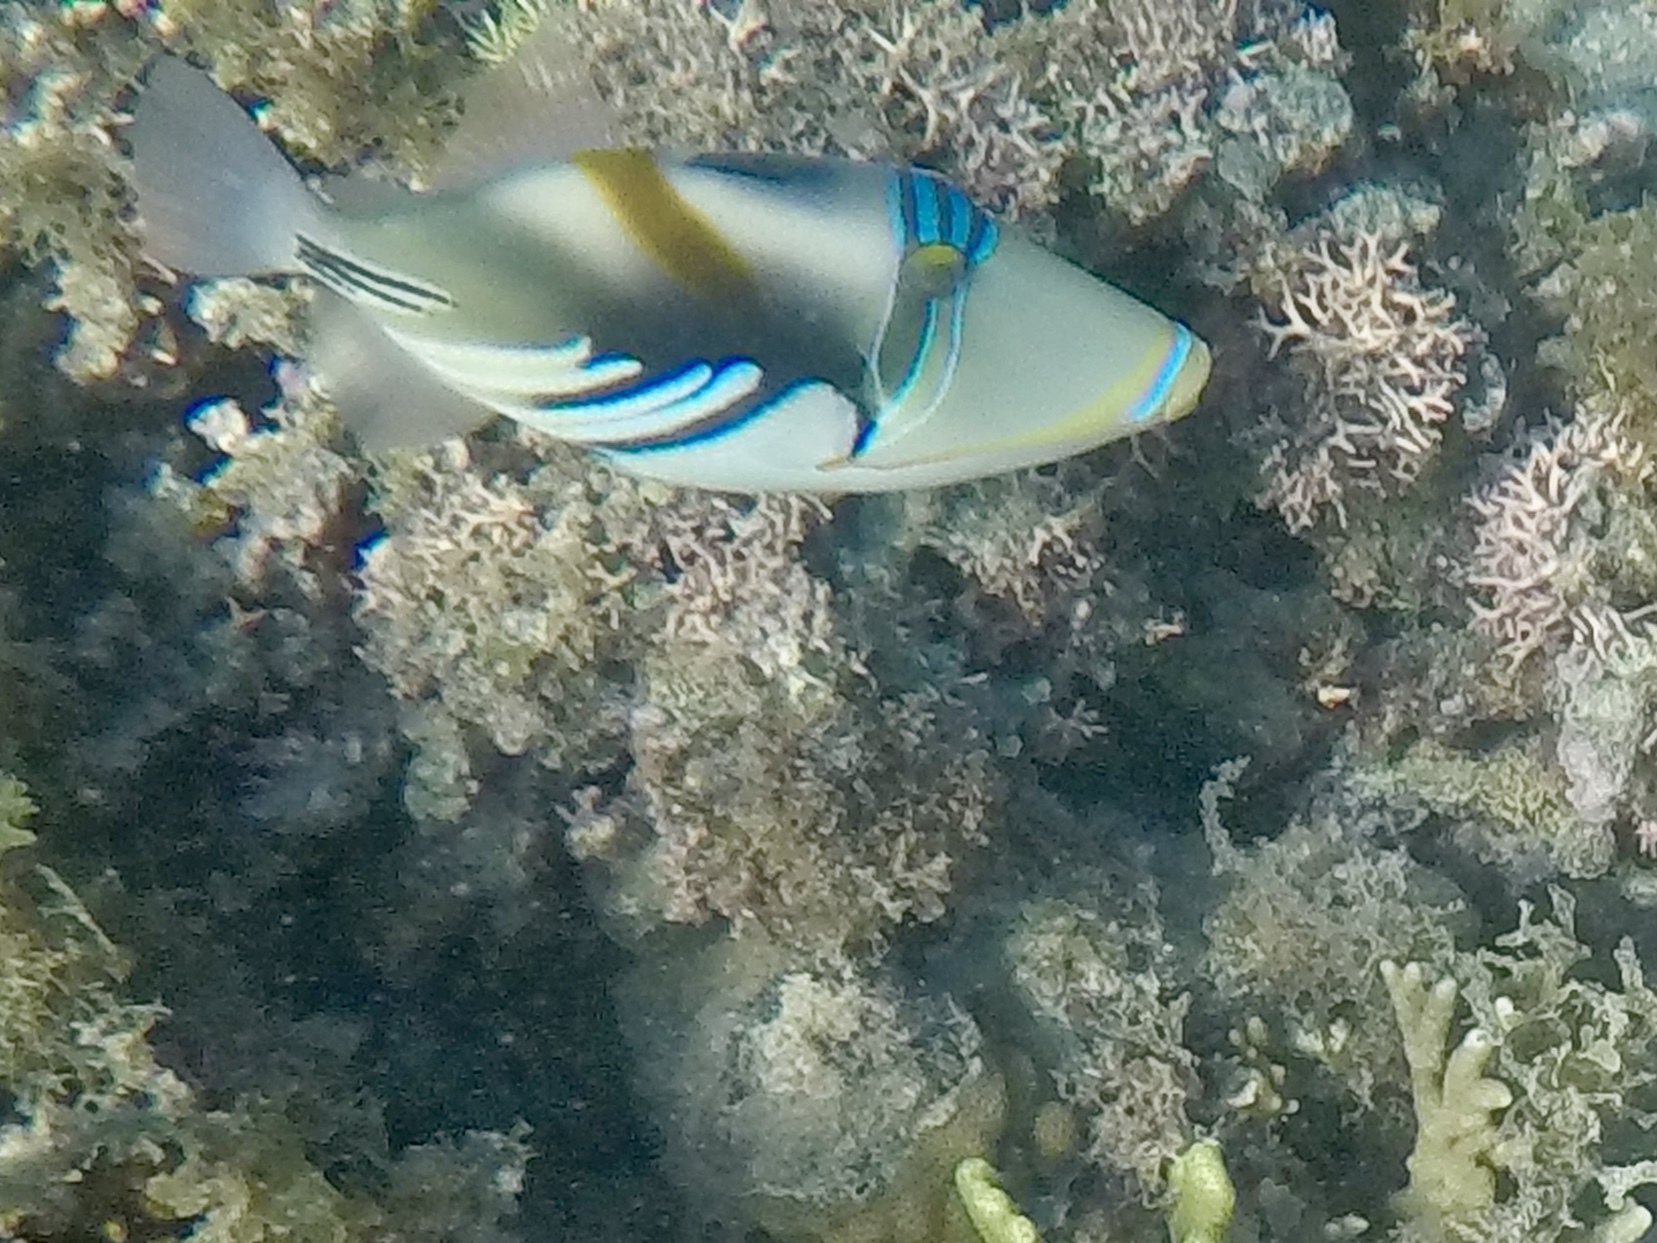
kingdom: Animalia
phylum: Chordata
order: Tetraodontiformes
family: Balistidae
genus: Rhinecanthus
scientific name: Rhinecanthus aculeatus
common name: White-banded triggerfish
